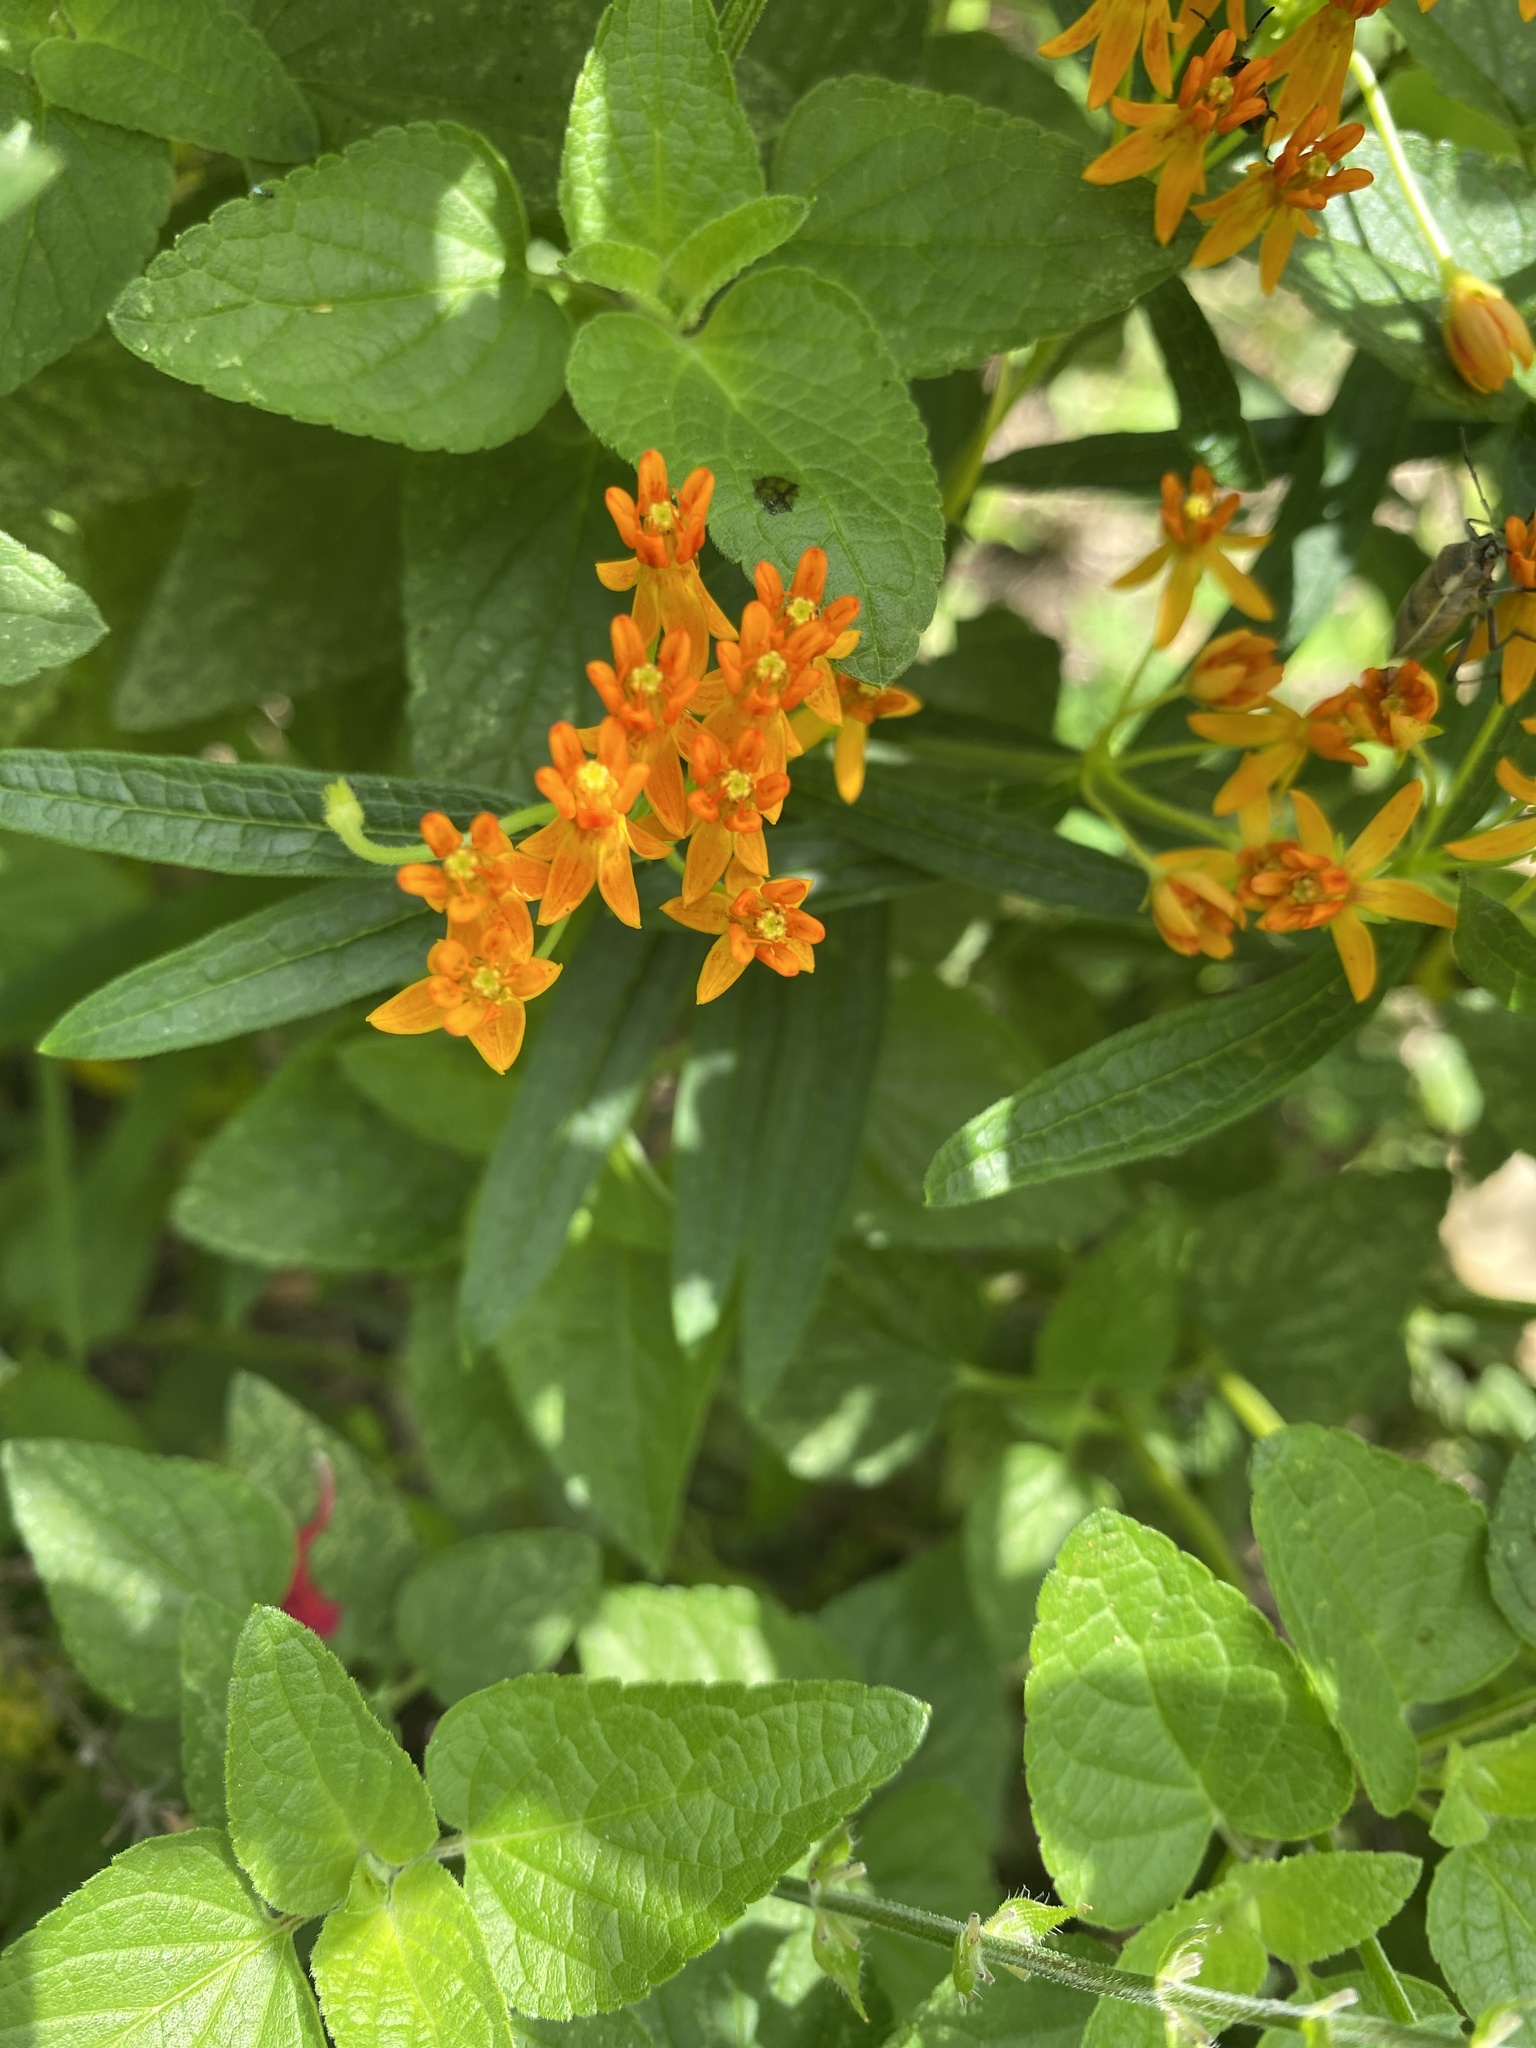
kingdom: Plantae
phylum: Tracheophyta
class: Magnoliopsida
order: Gentianales
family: Apocynaceae
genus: Asclepias
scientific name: Asclepias tuberosa
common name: Butterfly milkweed
